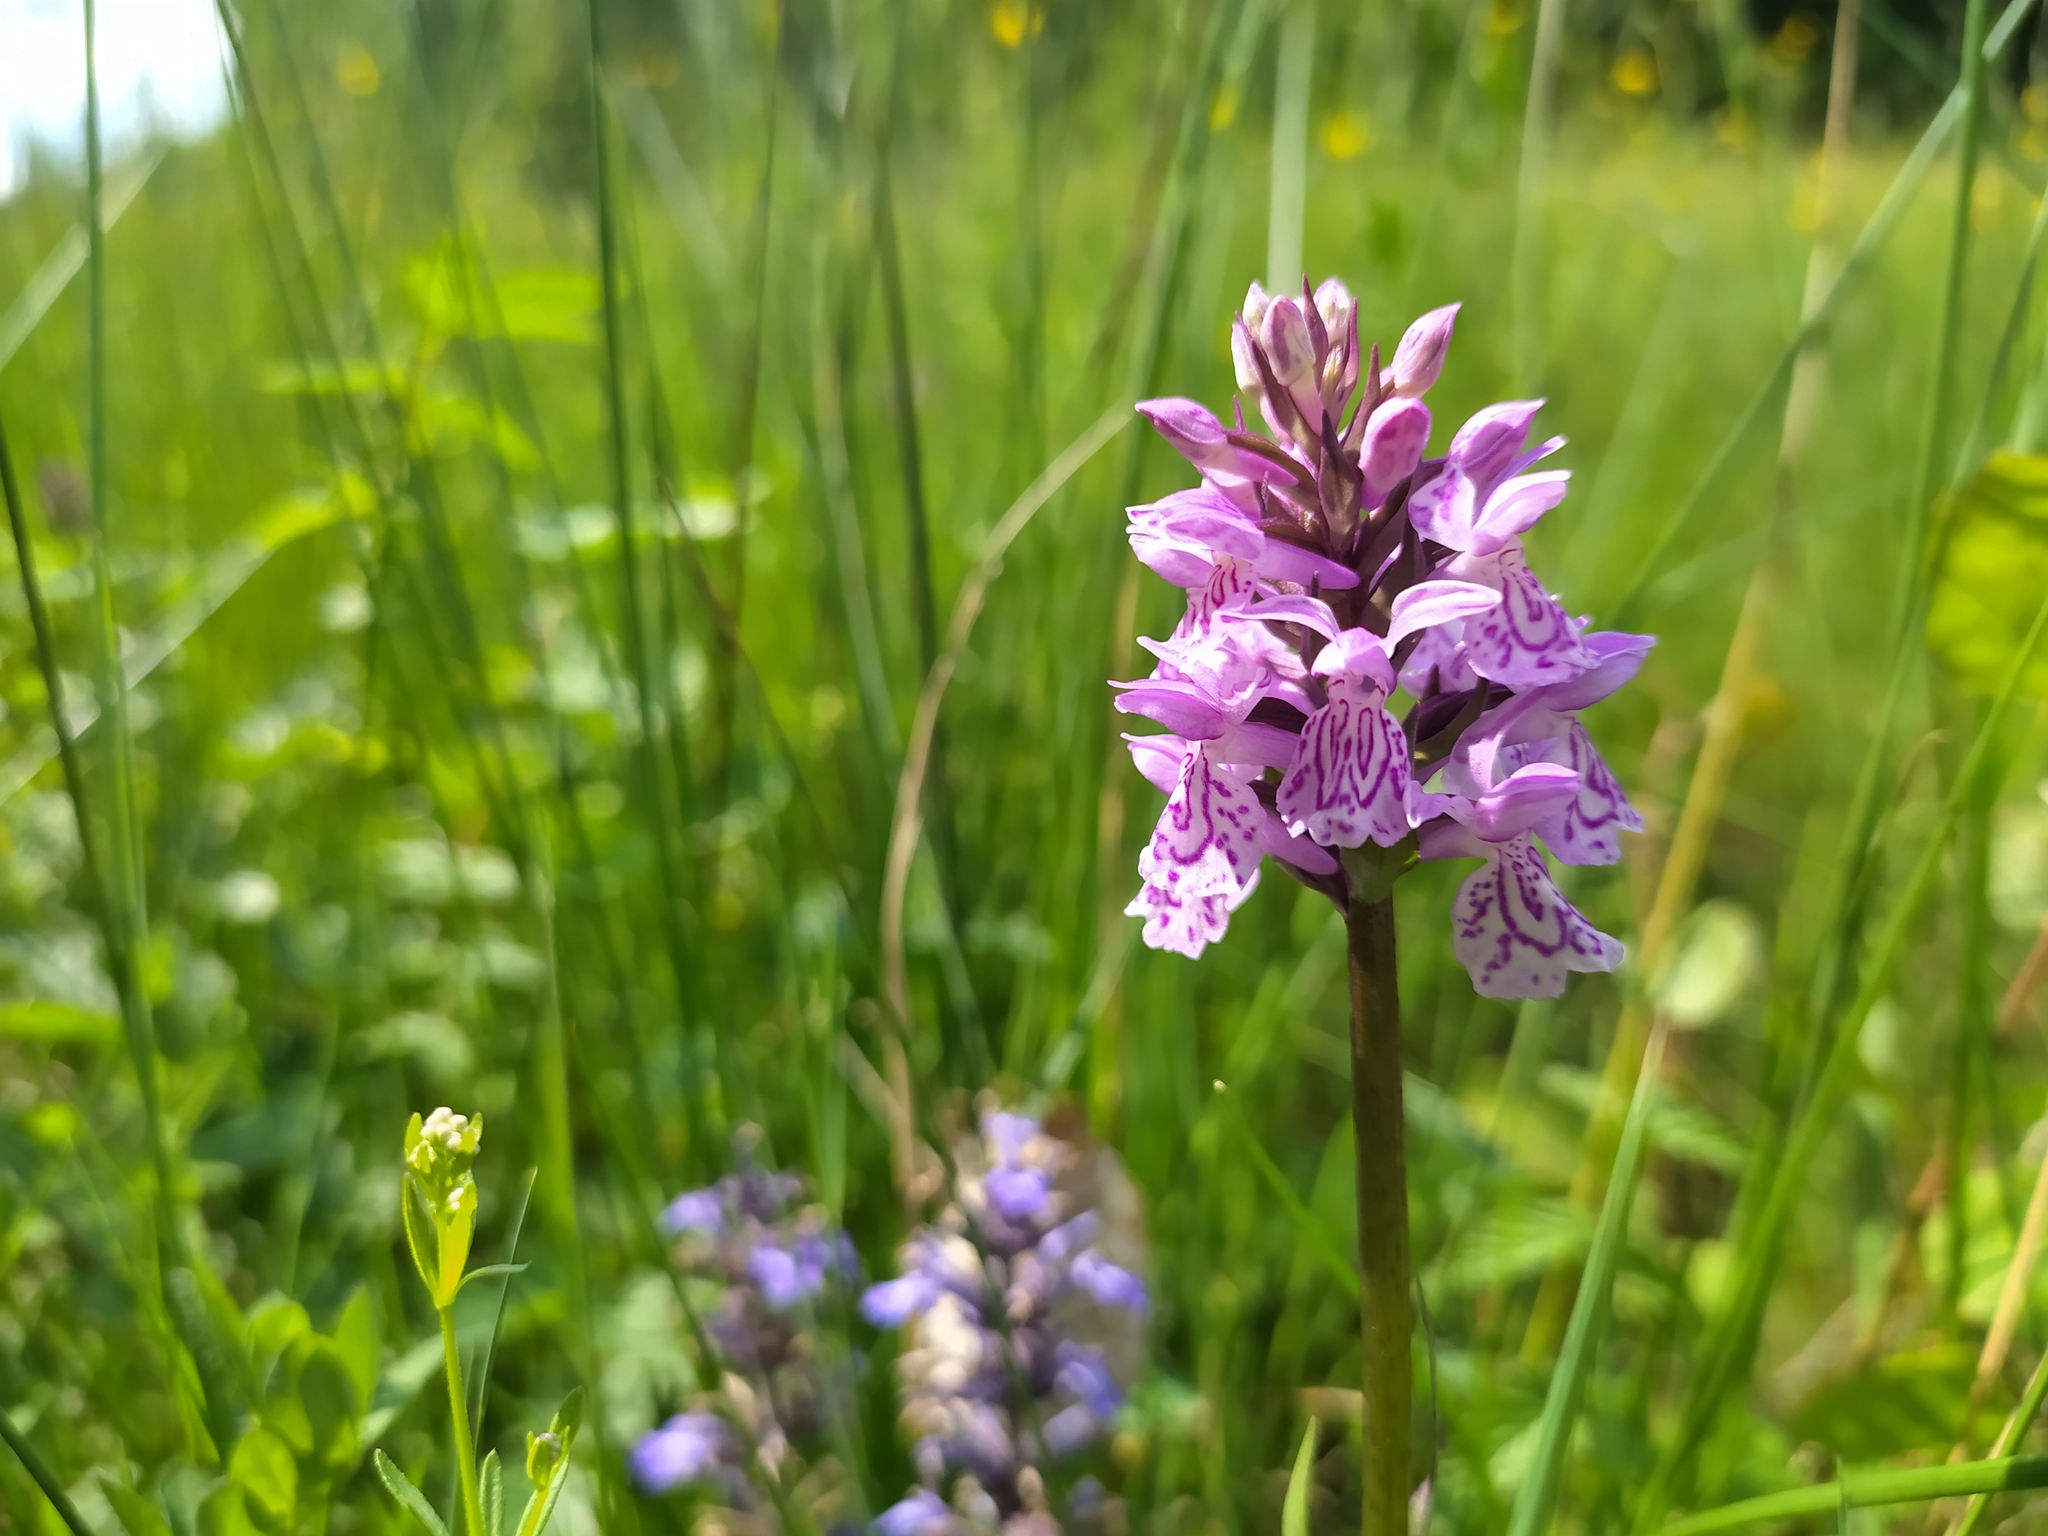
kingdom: Plantae
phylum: Tracheophyta
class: Liliopsida
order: Asparagales
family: Orchidaceae
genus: Dactylorhiza
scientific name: Dactylorhiza maculata
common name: Heath spotted-orchid
